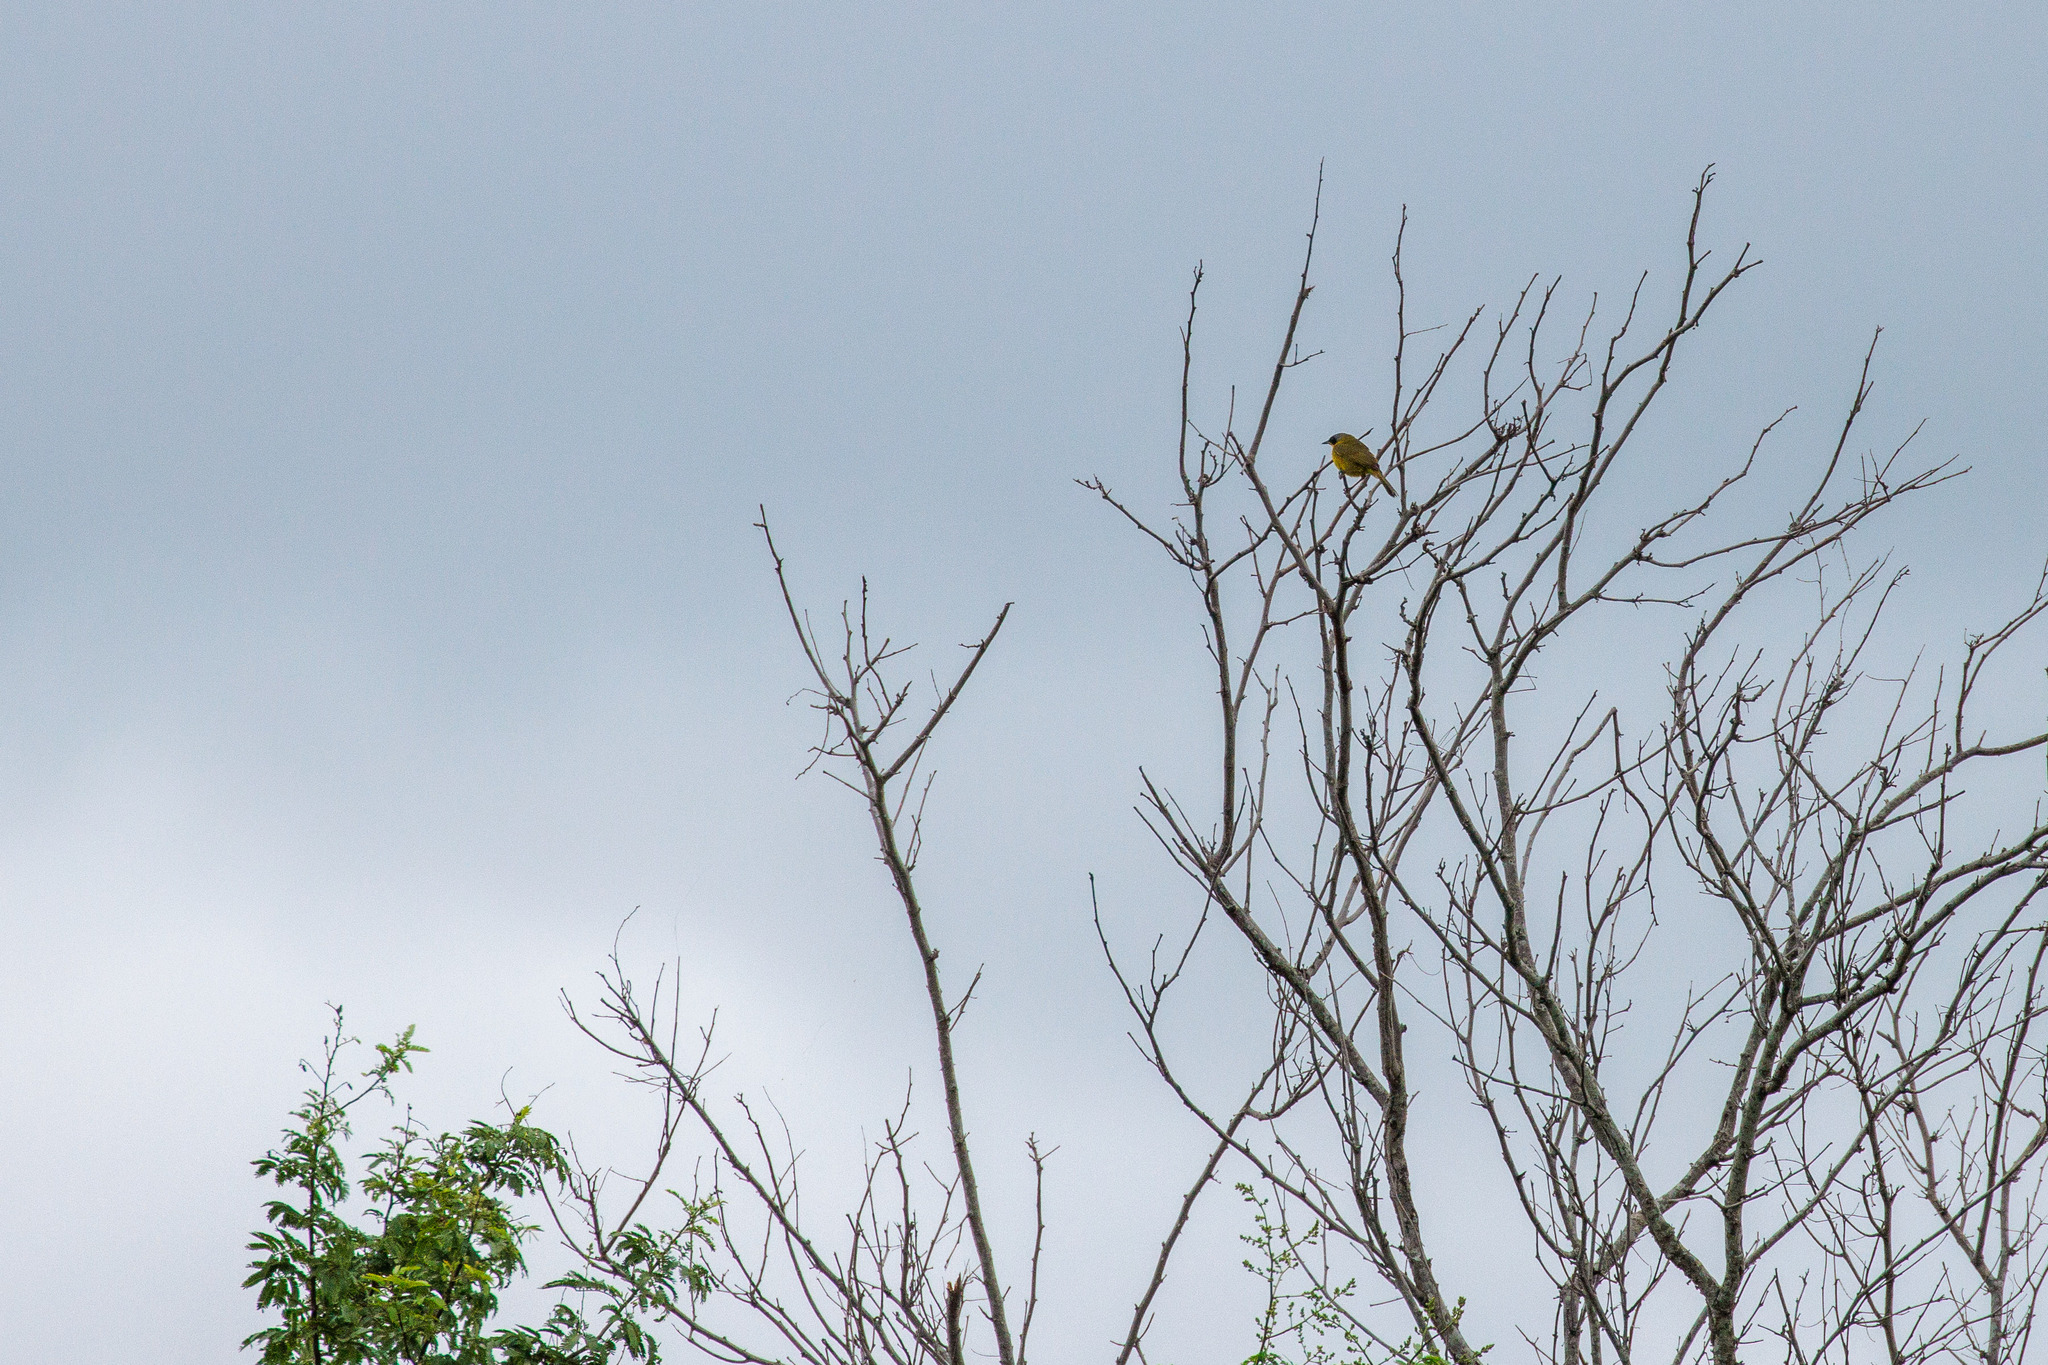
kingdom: Animalia
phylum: Chordata
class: Aves
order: Passeriformes
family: Parulidae
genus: Geothlypis
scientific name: Geothlypis velata
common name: Southern yellowthroat
